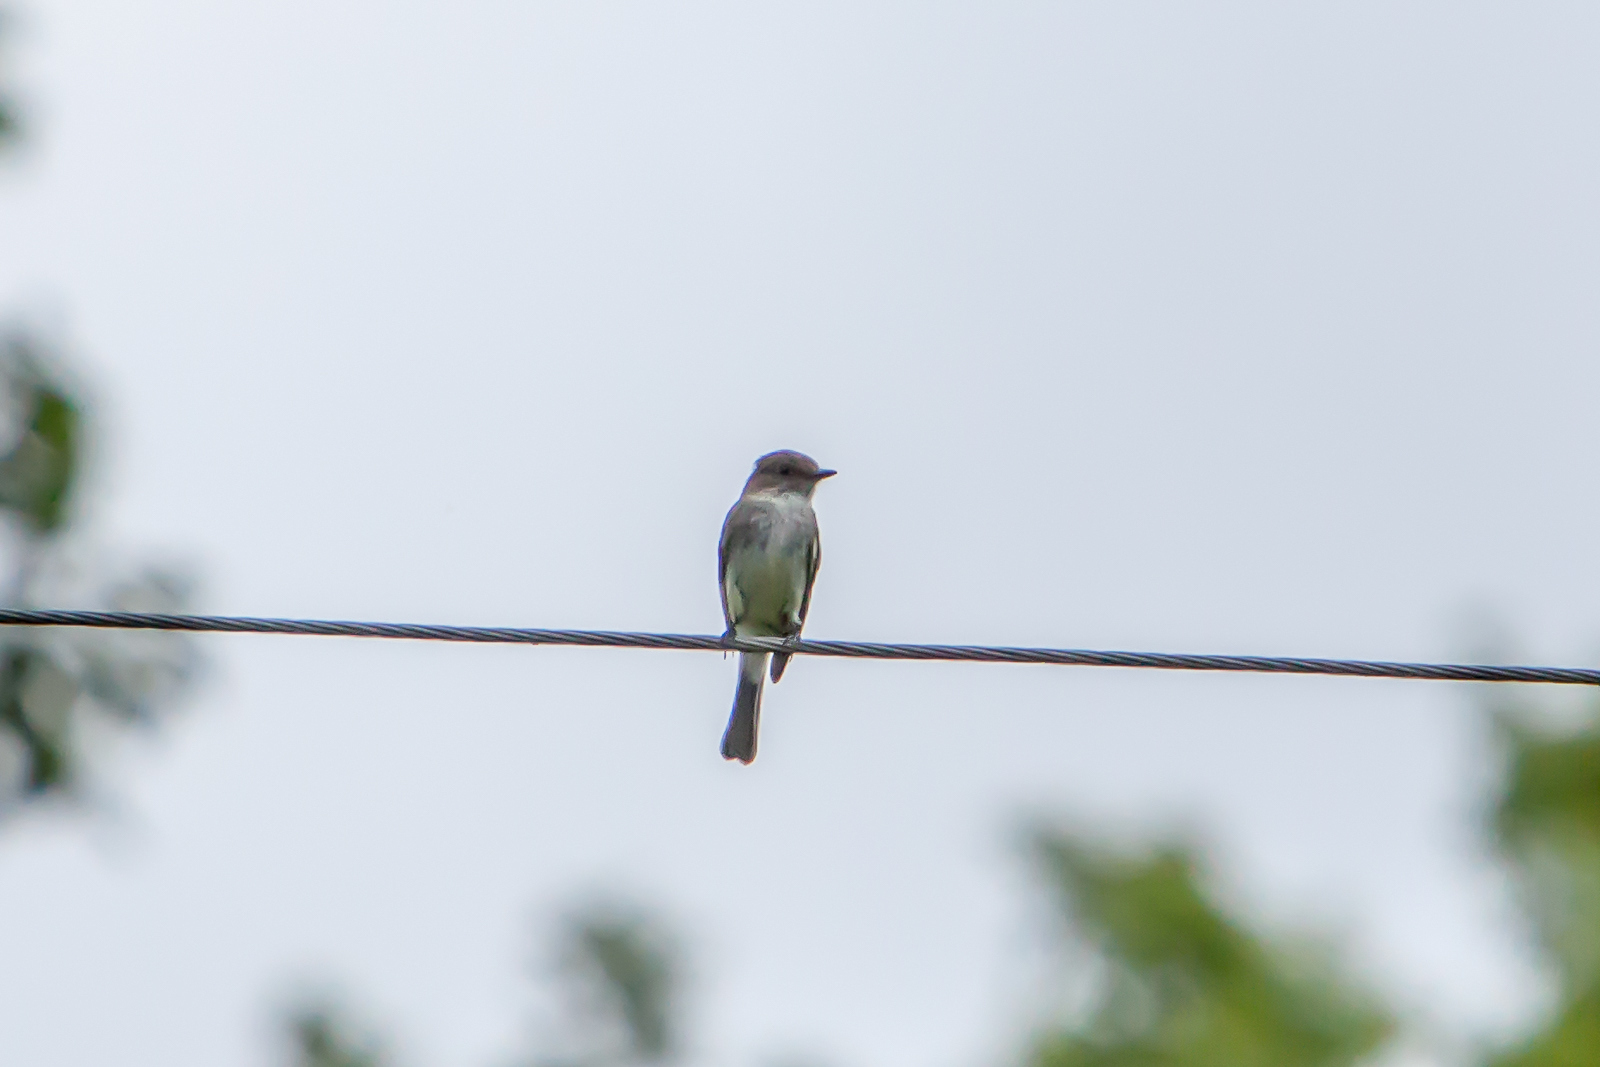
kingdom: Animalia
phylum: Chordata
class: Aves
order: Passeriformes
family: Tyrannidae
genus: Contopus
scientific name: Contopus virens
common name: Eastern wood-pewee
